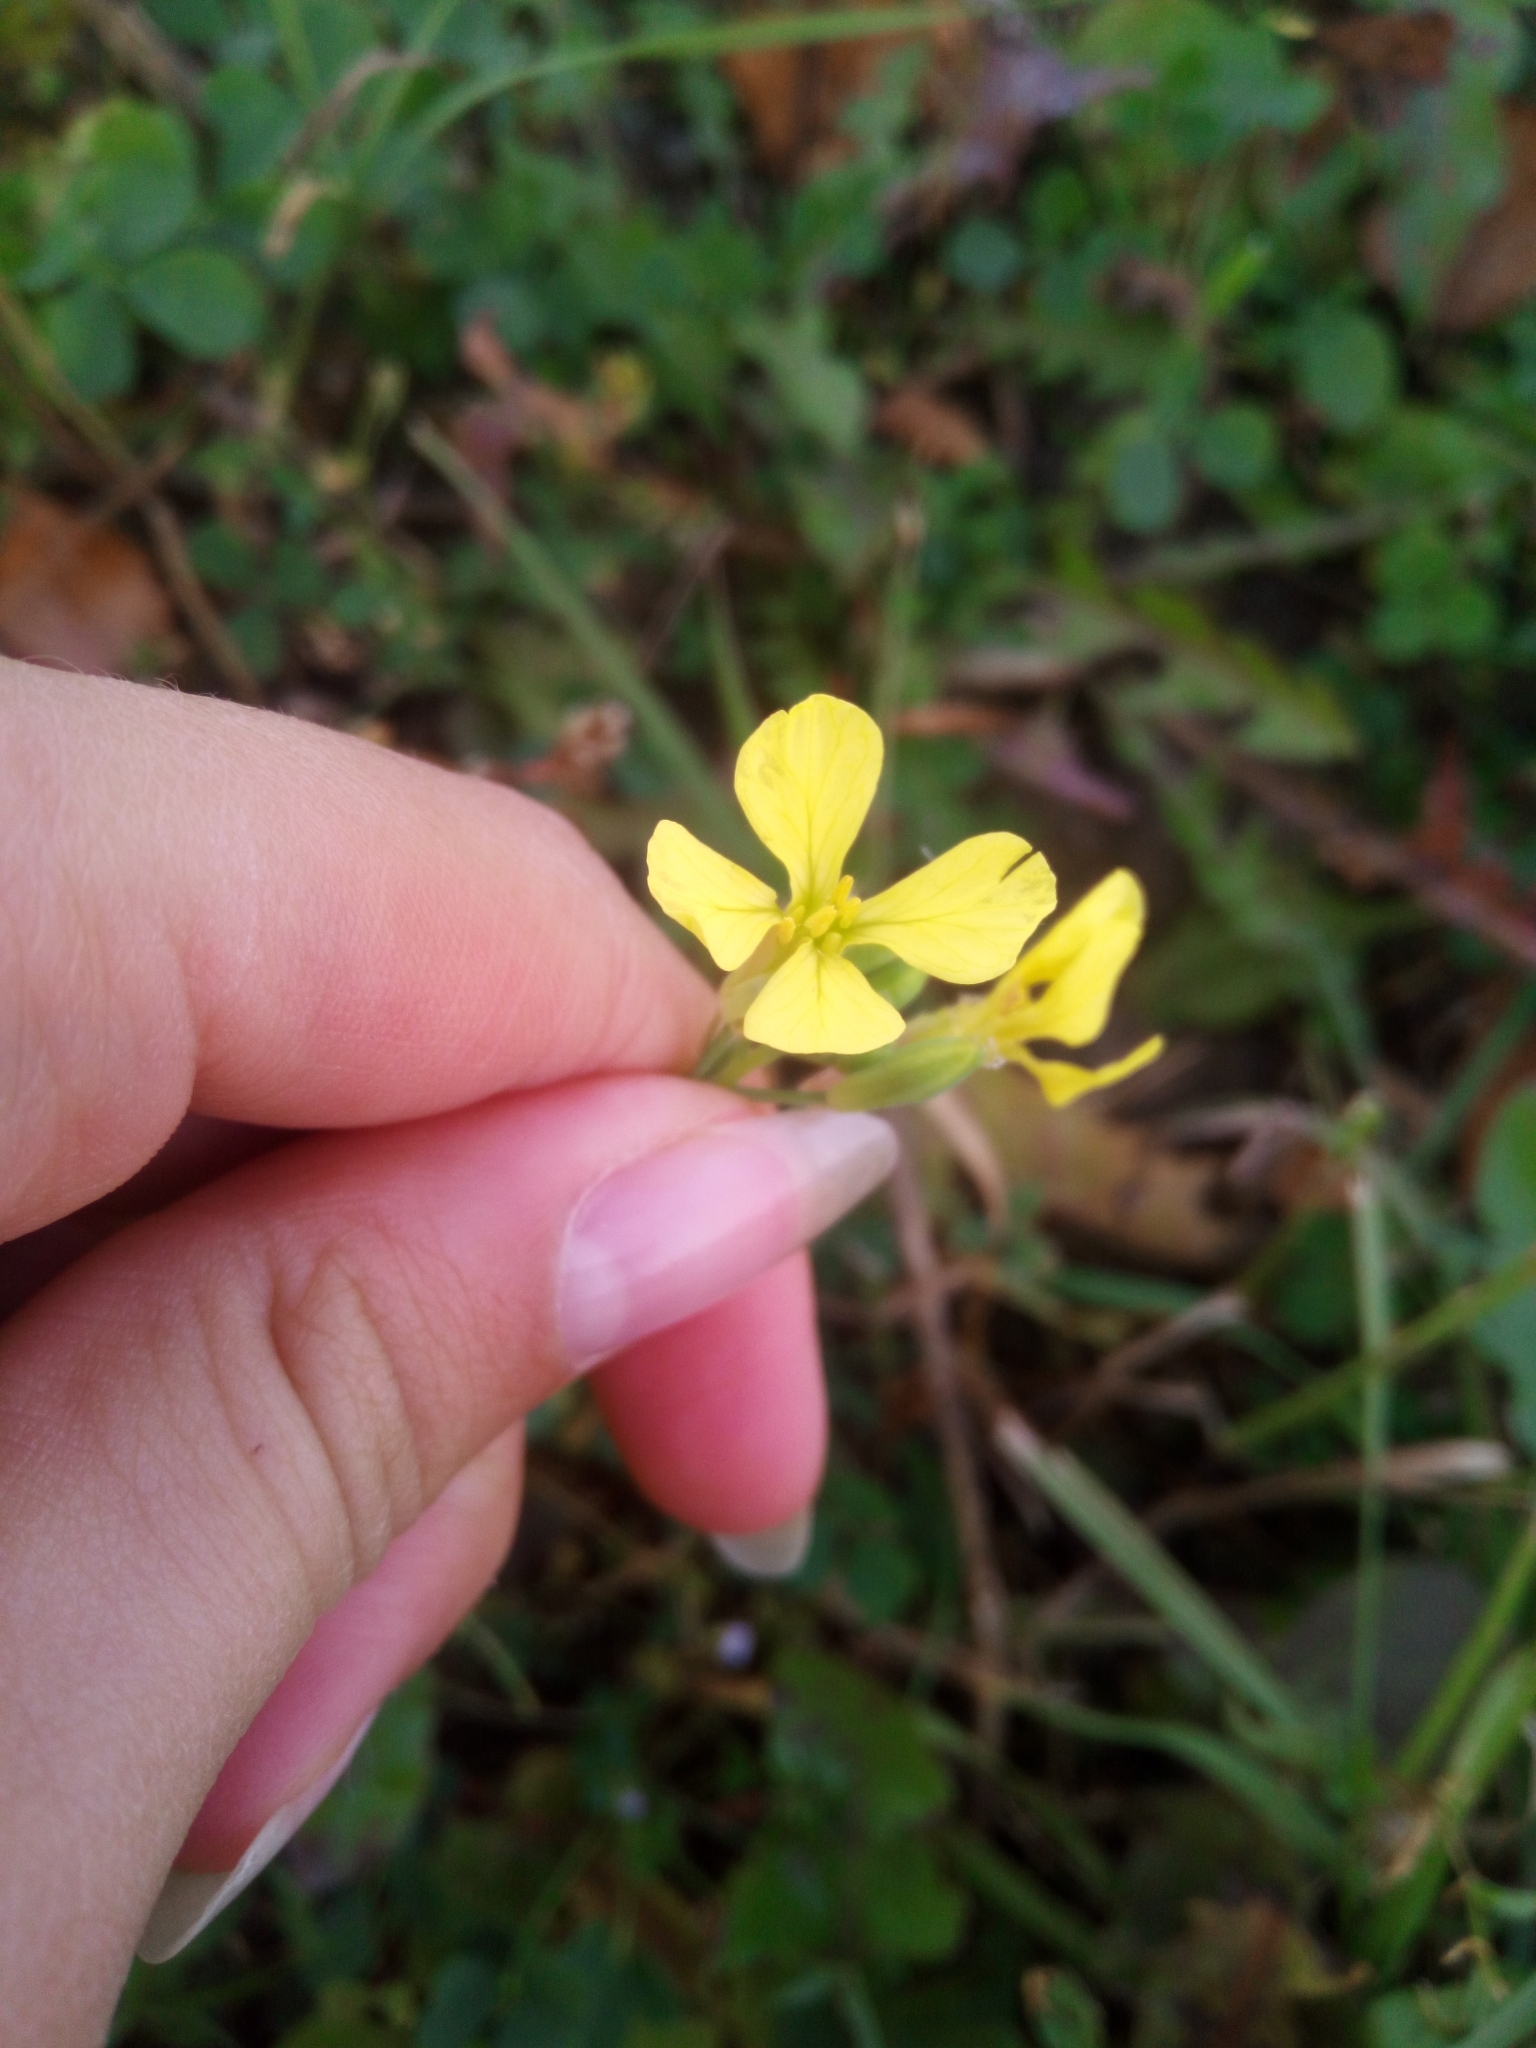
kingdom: Plantae
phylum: Tracheophyta
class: Magnoliopsida
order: Brassicales
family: Brassicaceae
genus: Raphanus
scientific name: Raphanus raphanistrum
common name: Wild radish
